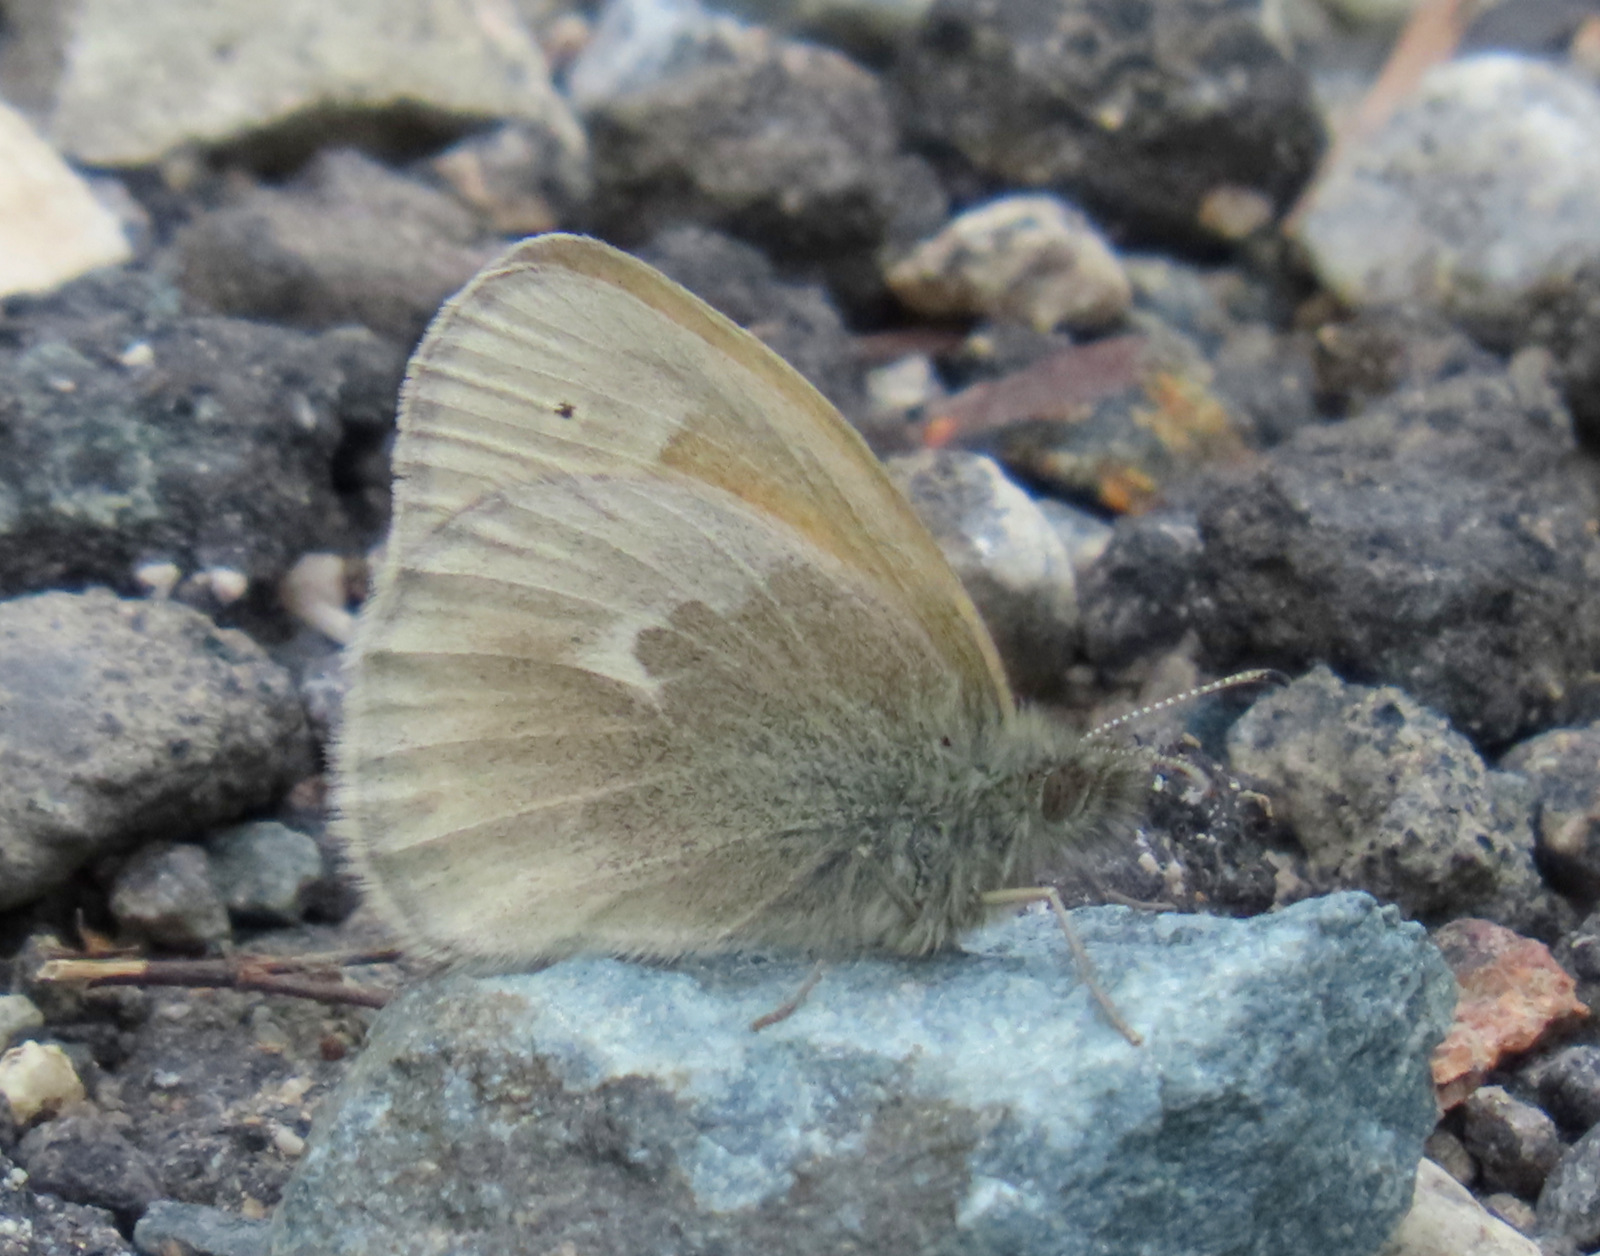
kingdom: Animalia
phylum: Arthropoda
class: Insecta
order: Lepidoptera
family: Nymphalidae
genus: Coenonympha
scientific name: Coenonympha california
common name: Common ringlet
